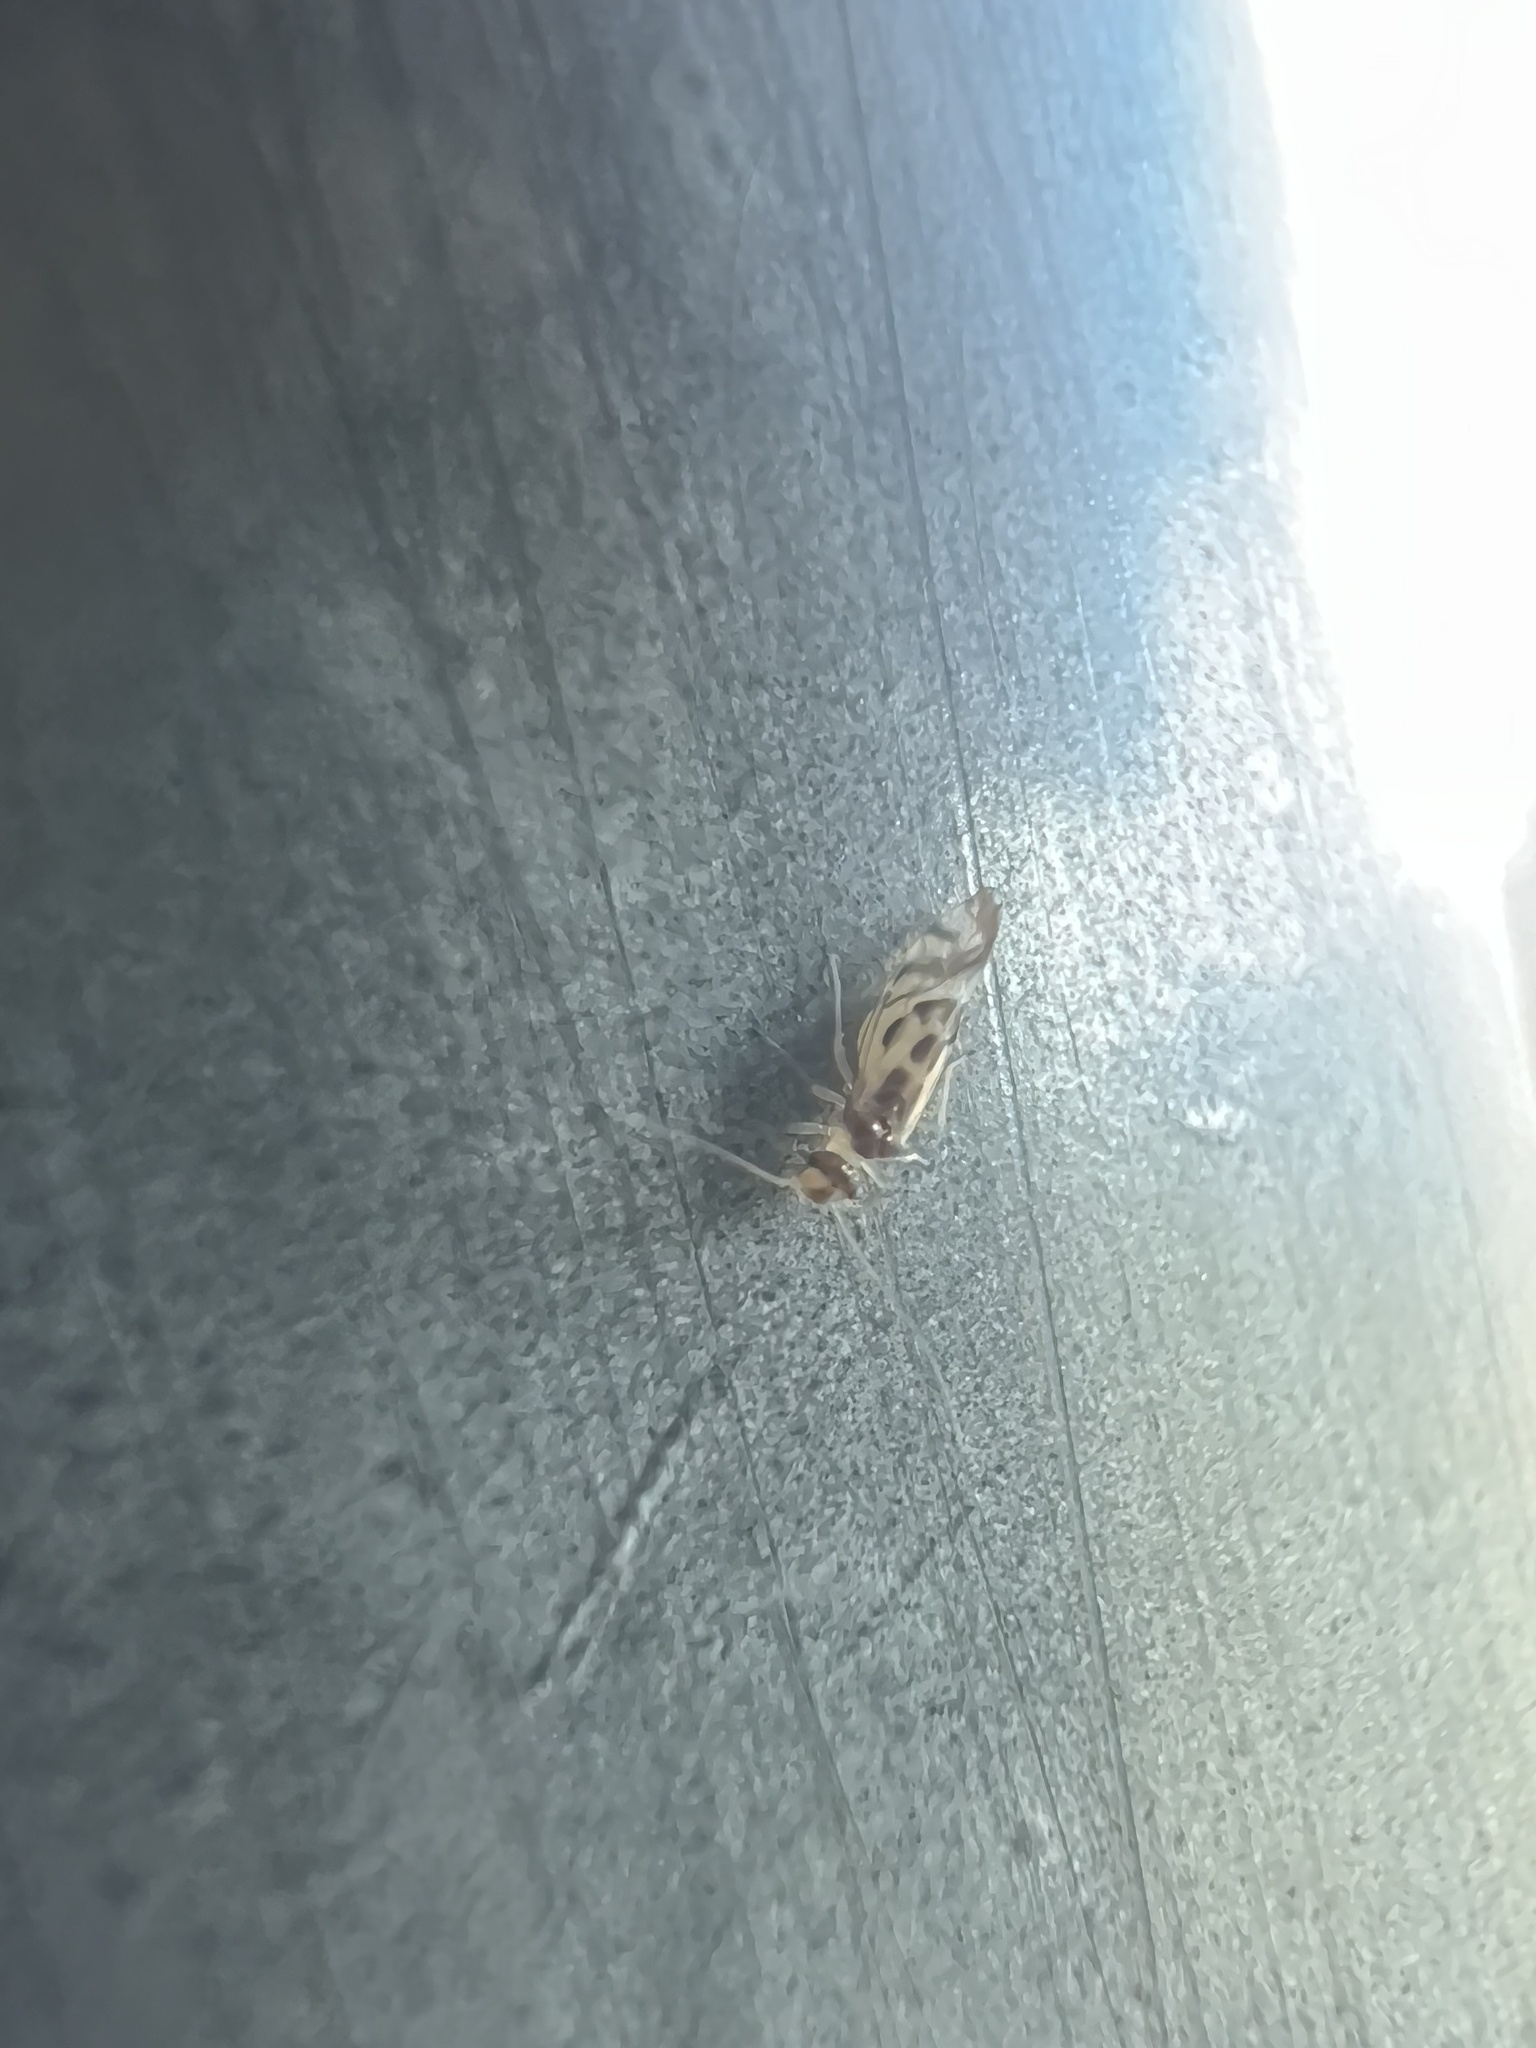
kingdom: Animalia
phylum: Arthropoda
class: Insecta
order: Psocodea
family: Stenopsocidae
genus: Graphopsocus
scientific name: Graphopsocus cruciatus
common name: Lizard bark louse
